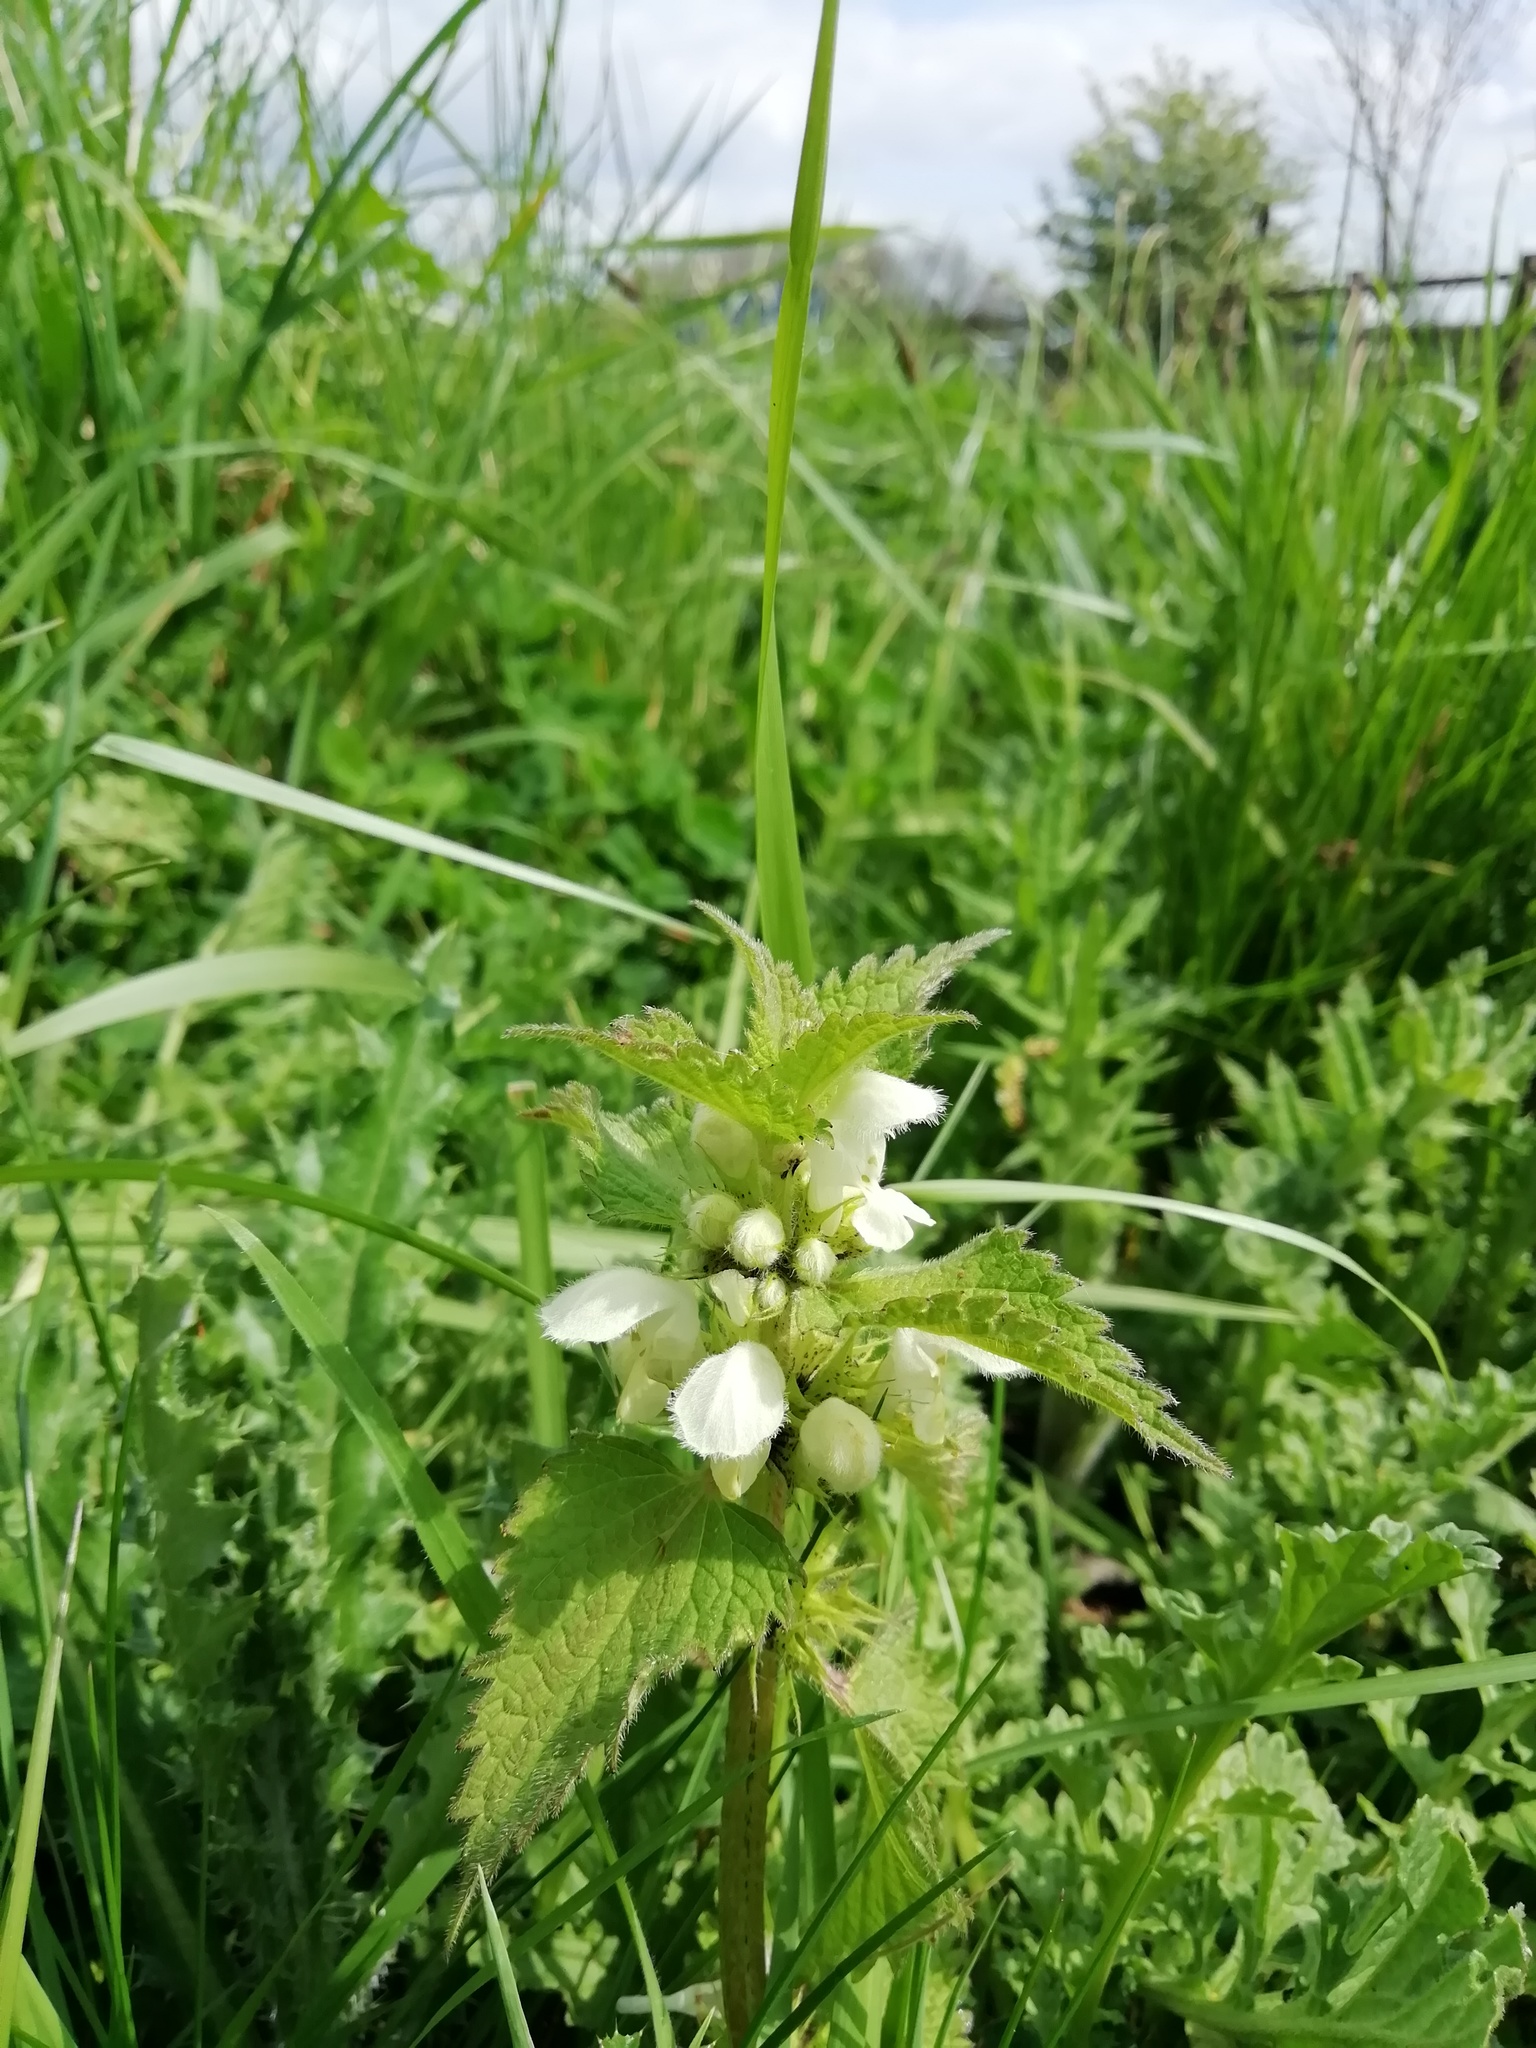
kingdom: Plantae
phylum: Tracheophyta
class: Magnoliopsida
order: Lamiales
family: Lamiaceae
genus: Lamium
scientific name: Lamium album
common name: White dead-nettle
